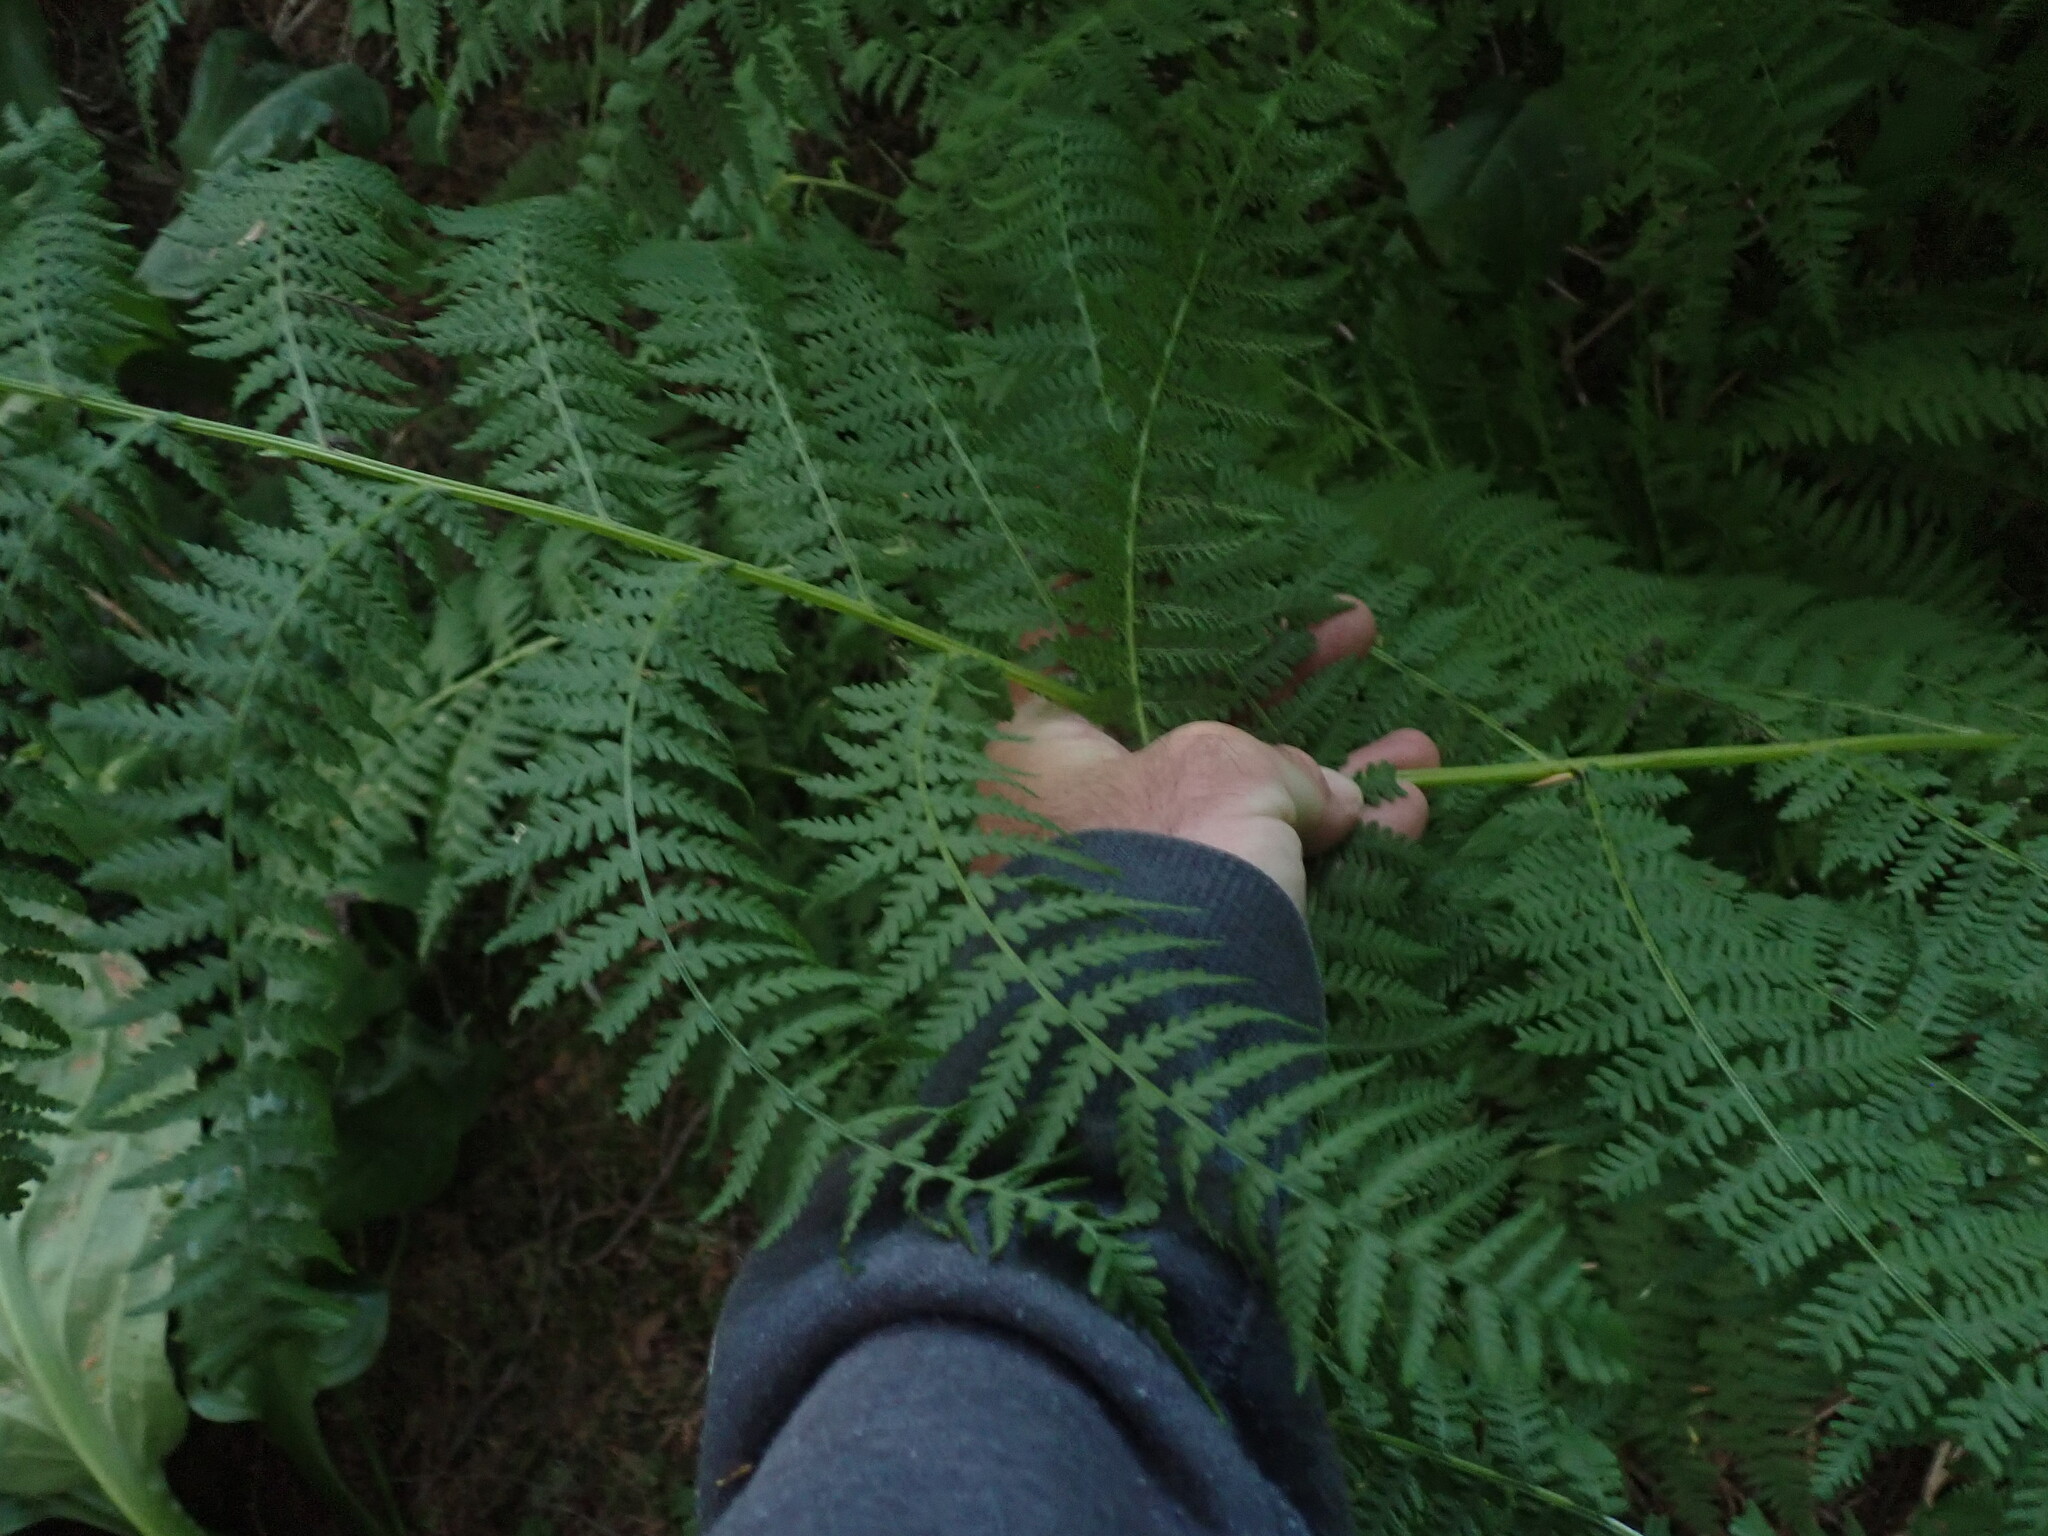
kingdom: Plantae
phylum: Tracheophyta
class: Polypodiopsida
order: Polypodiales
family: Athyriaceae
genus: Athyrium
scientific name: Athyrium filix-femina
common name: Lady fern
